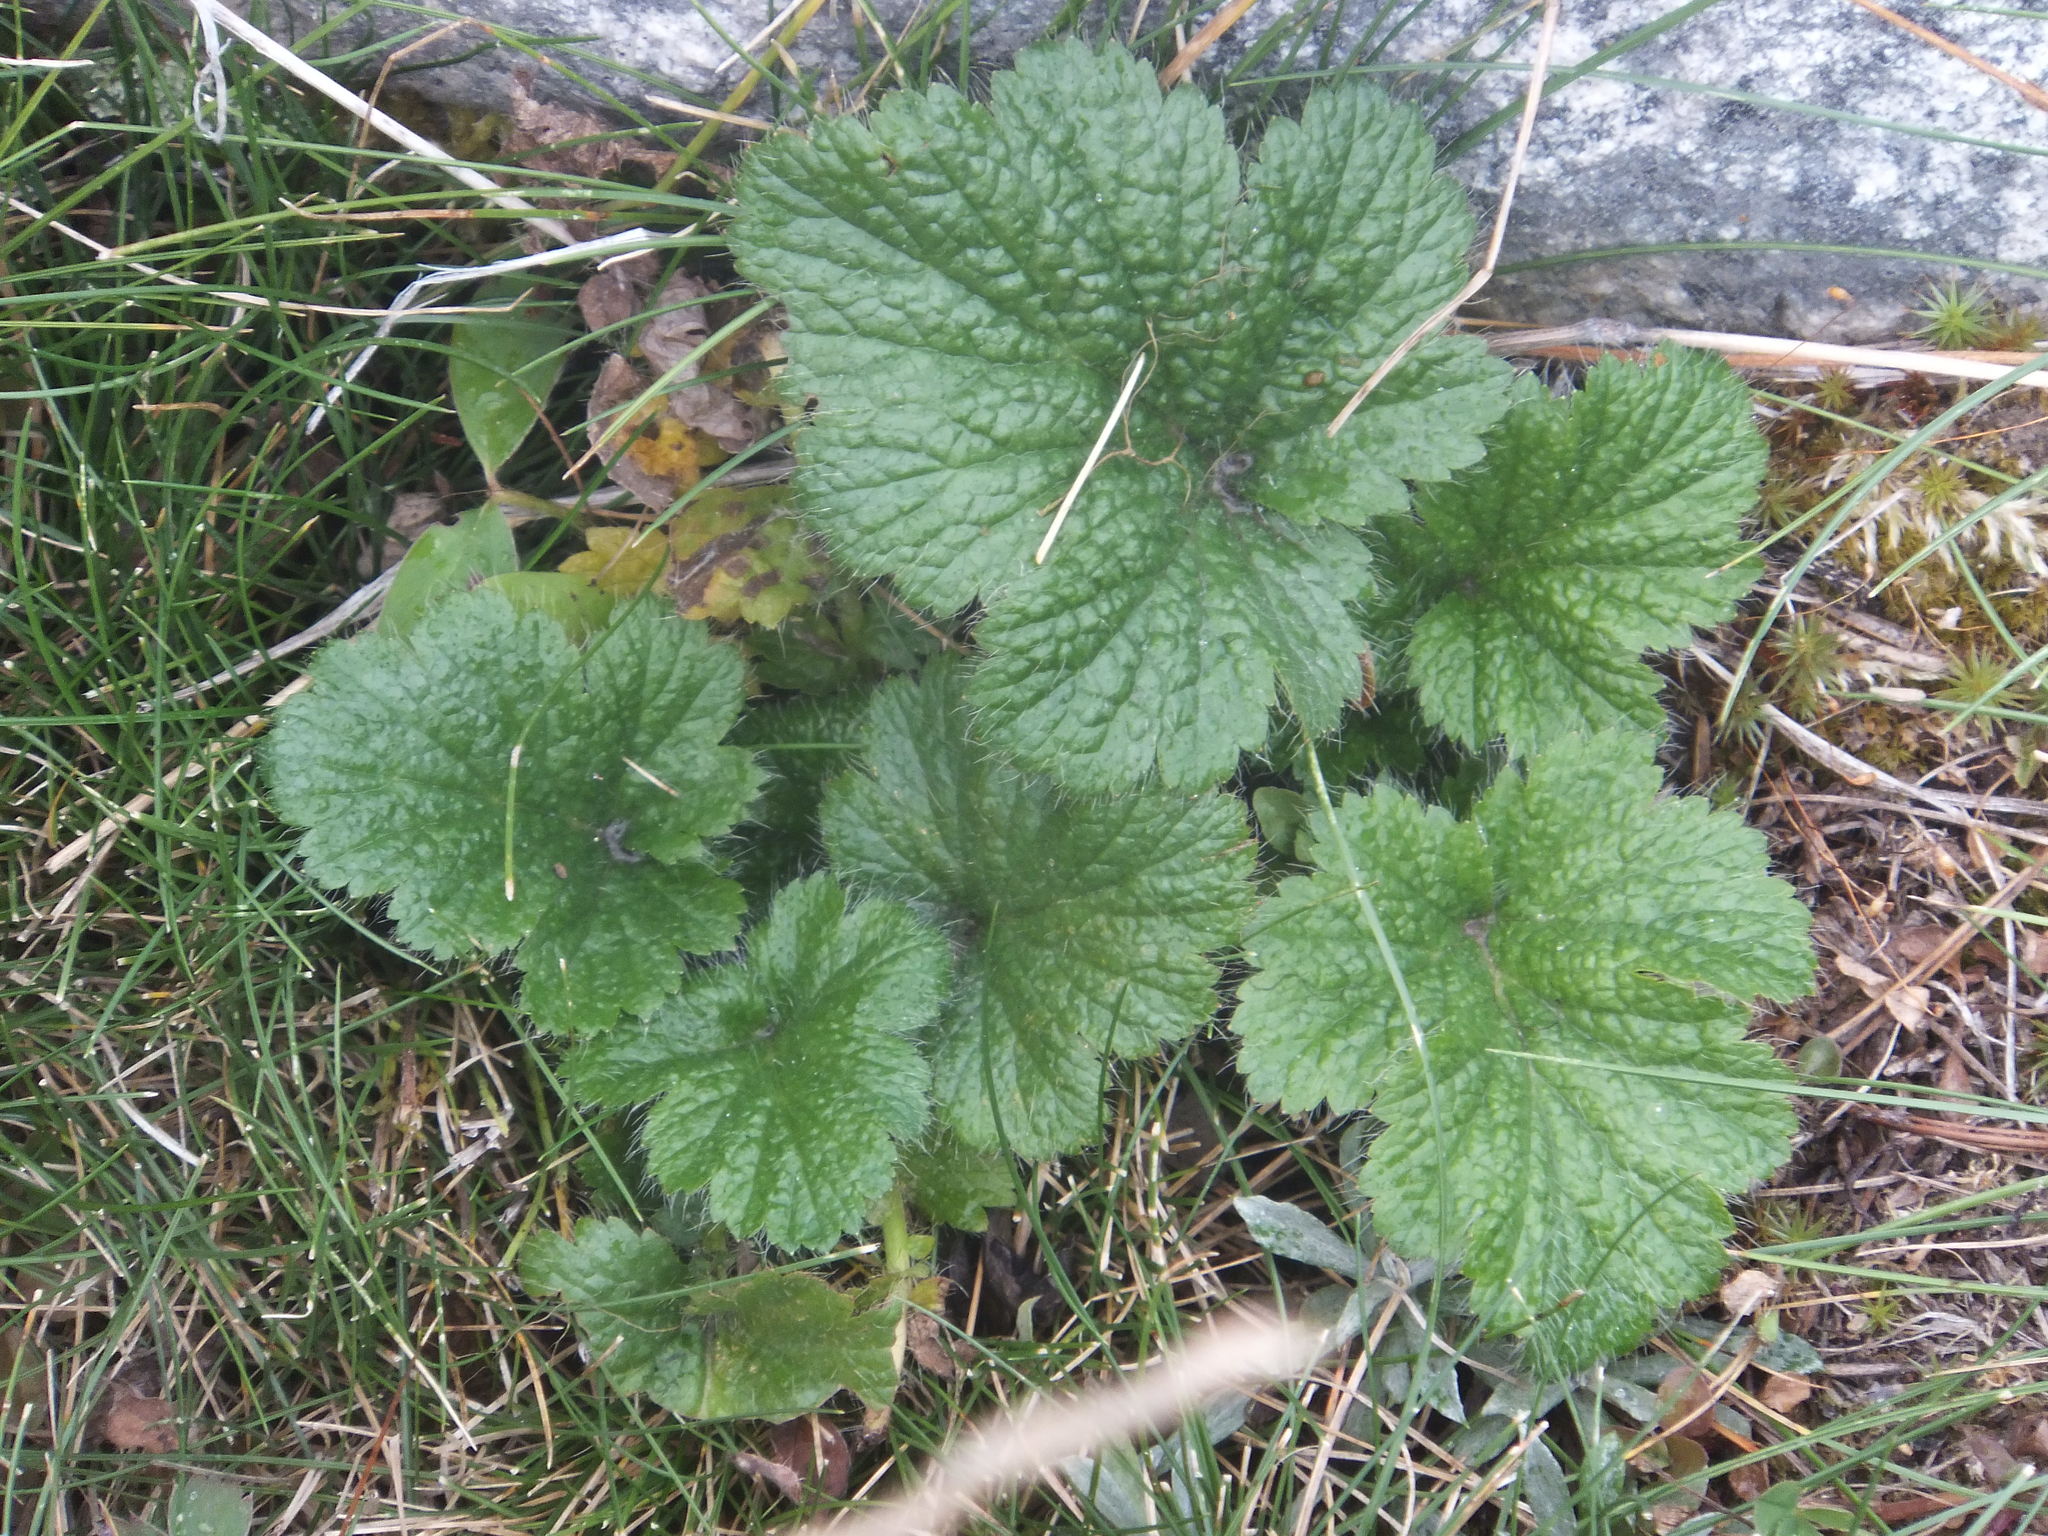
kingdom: Plantae
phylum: Tracheophyta
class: Magnoliopsida
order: Rosales
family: Rosaceae
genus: Geum
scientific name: Geum macrophyllum
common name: Large-leaved avens
